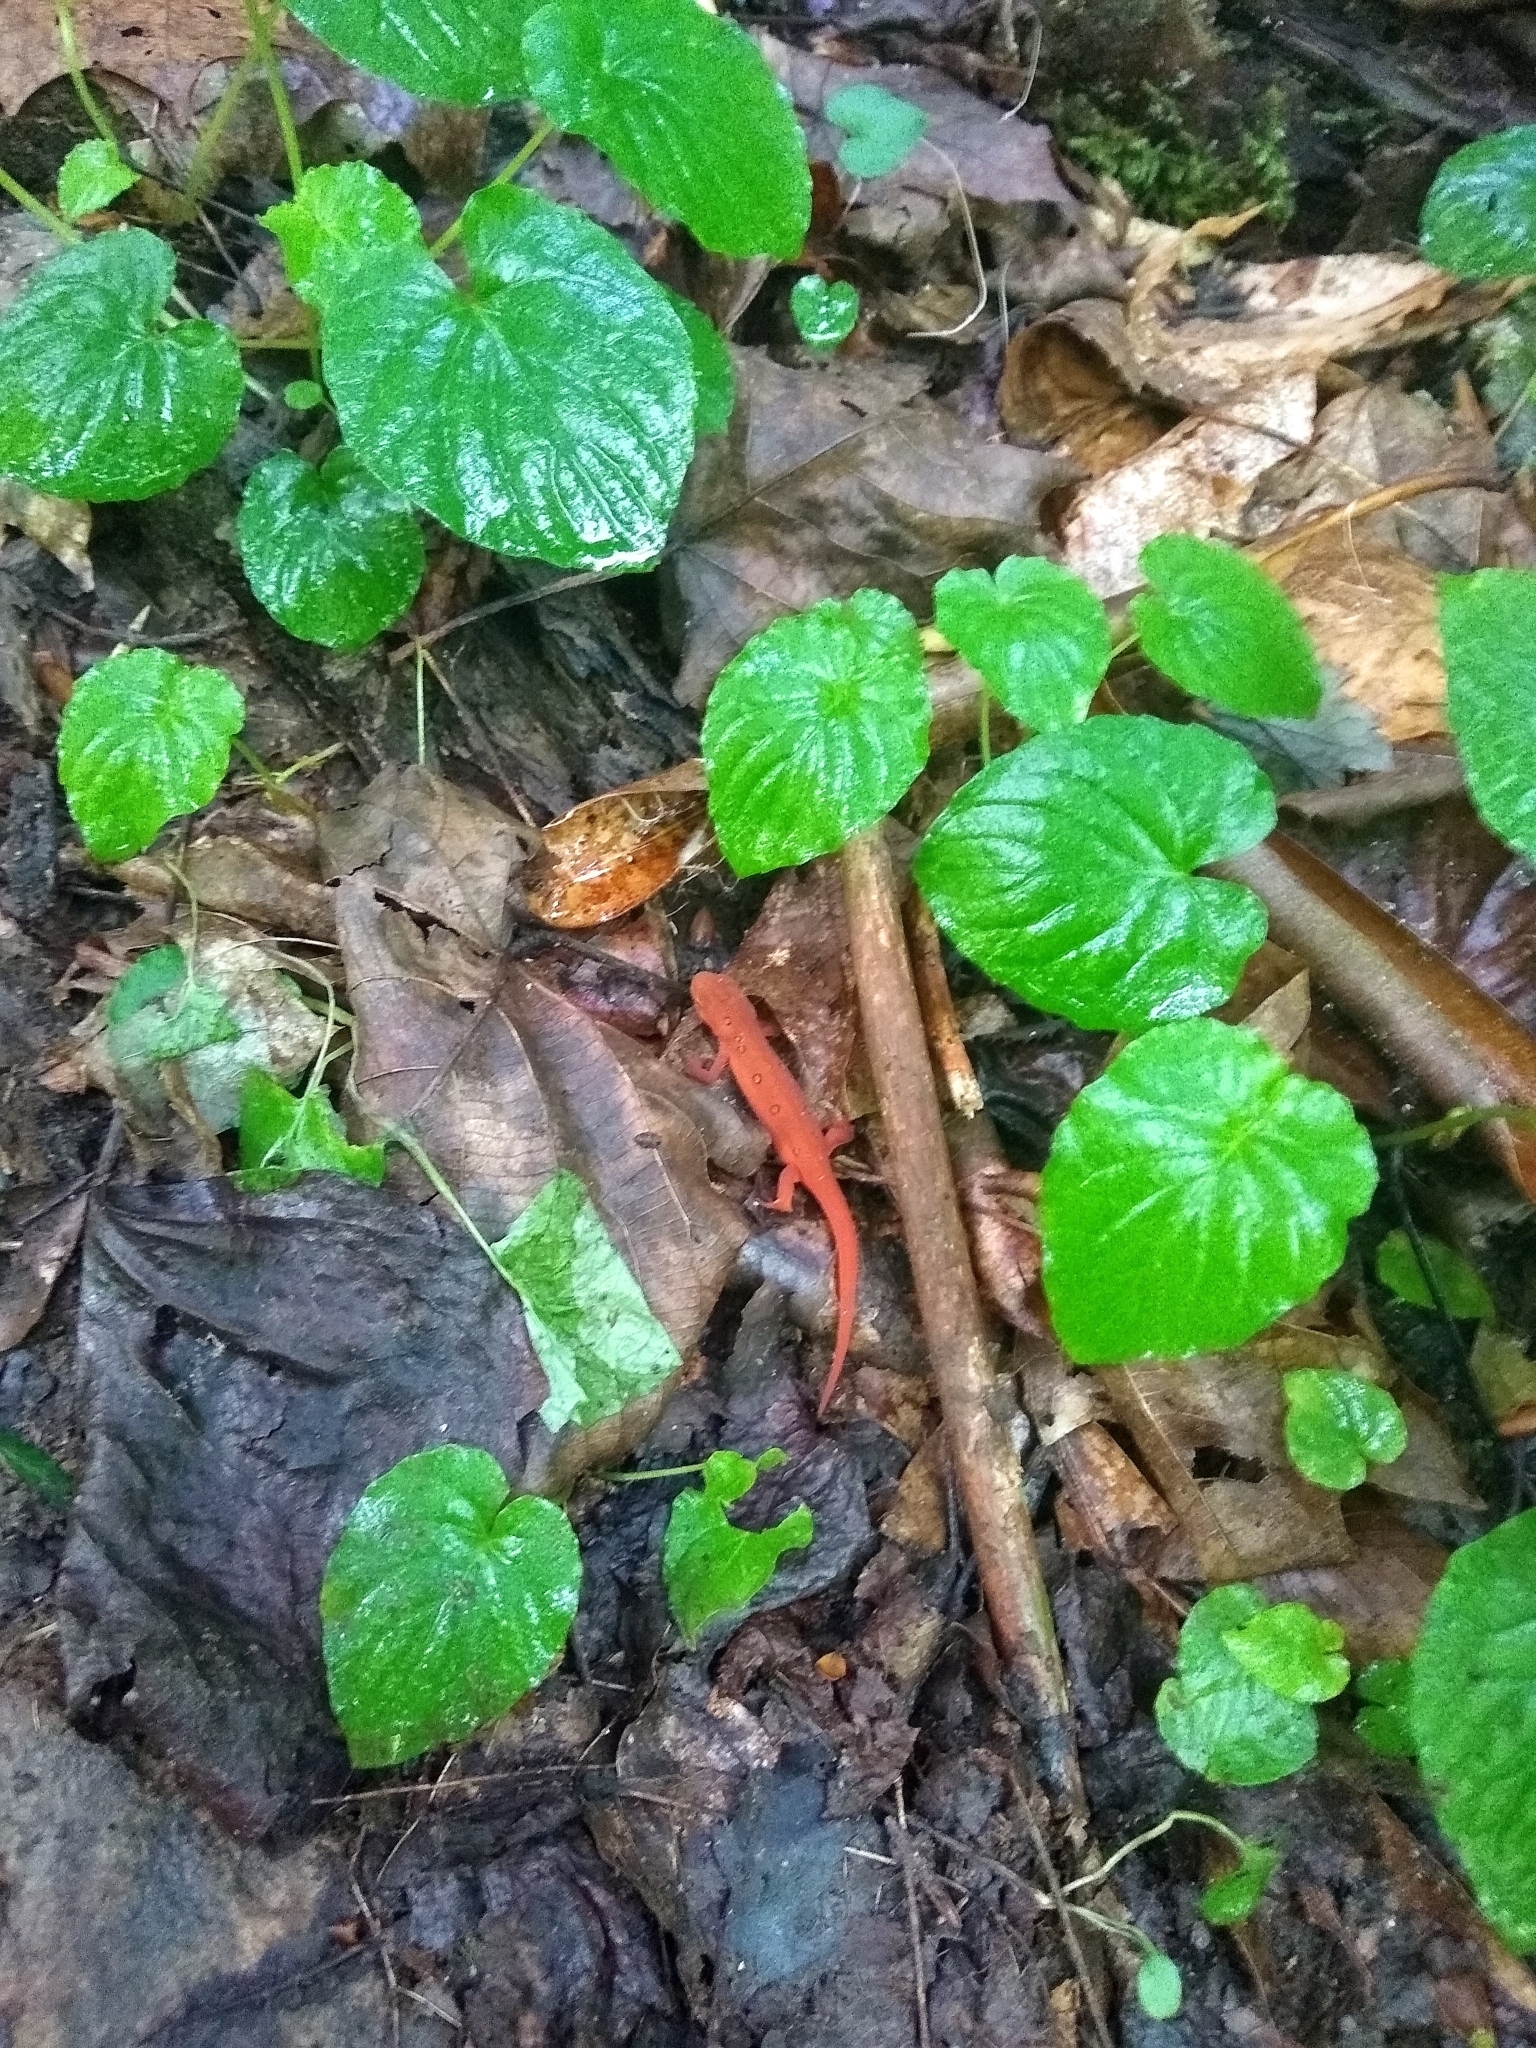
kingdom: Animalia
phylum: Chordata
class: Amphibia
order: Caudata
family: Salamandridae
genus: Notophthalmus
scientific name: Notophthalmus viridescens
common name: Eastern newt
